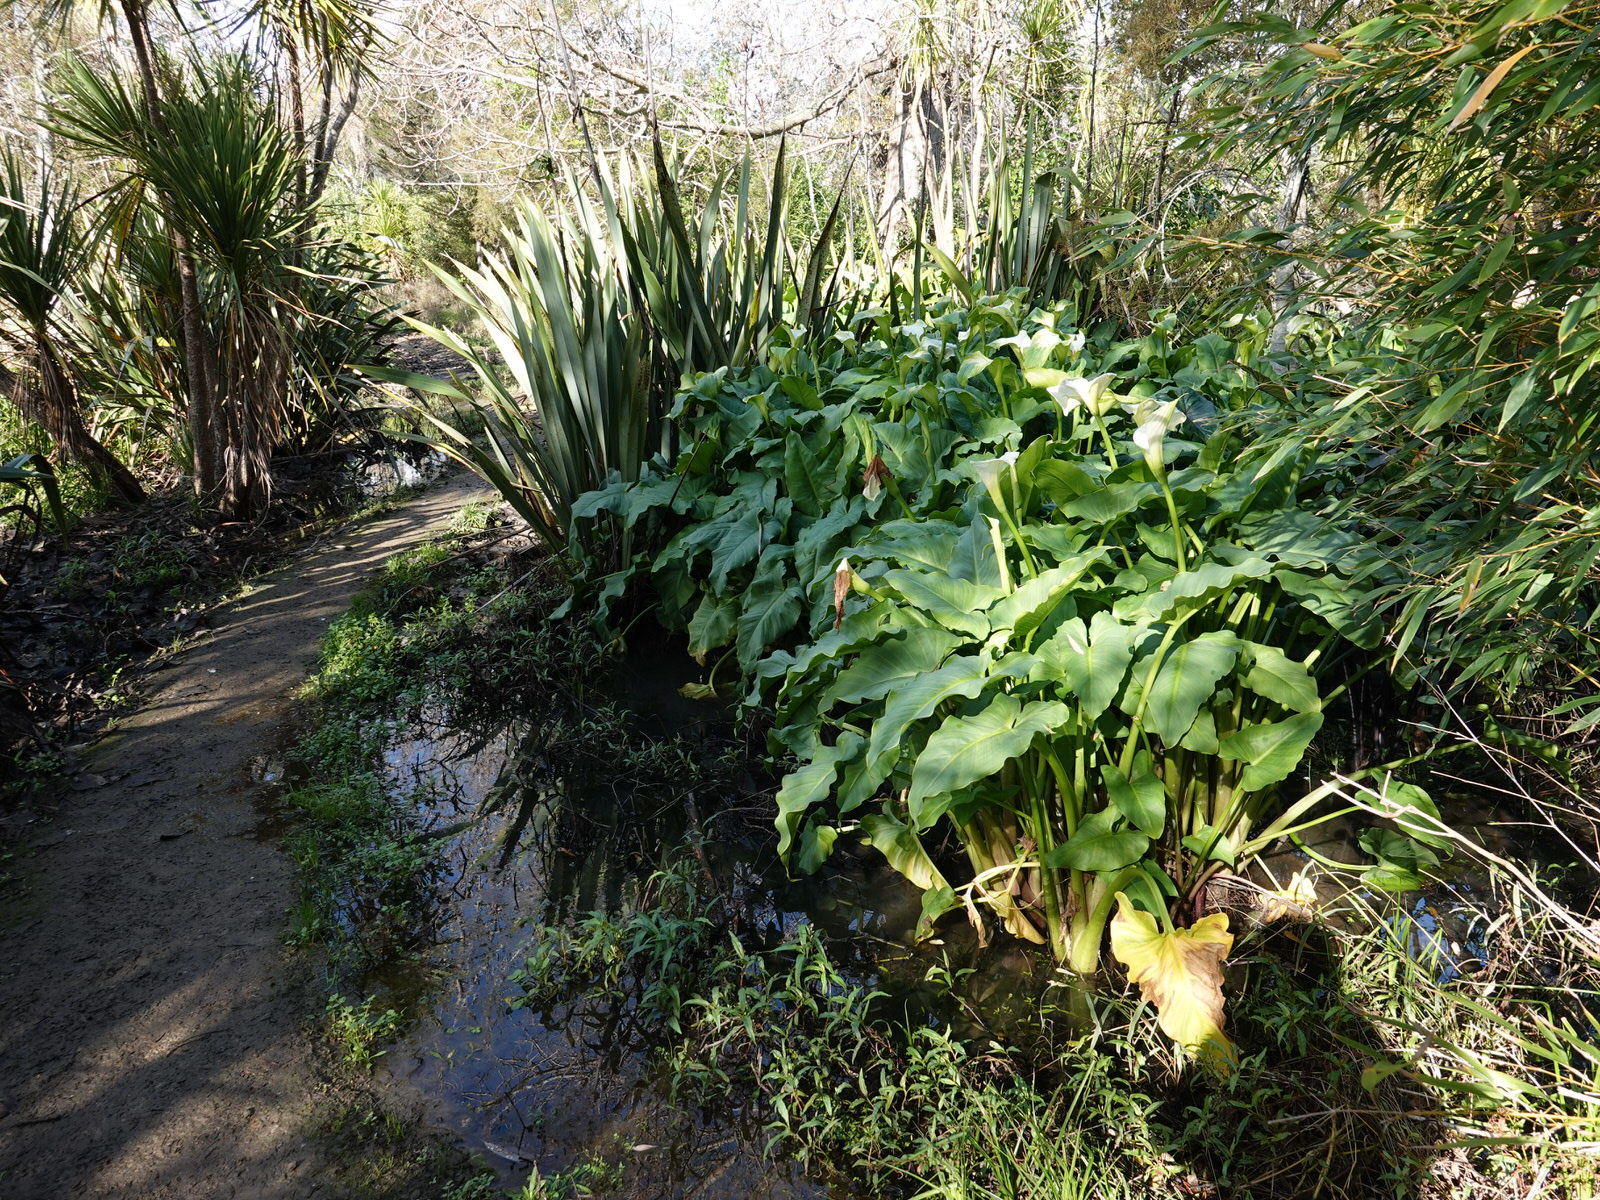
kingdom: Plantae
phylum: Tracheophyta
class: Liliopsida
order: Alismatales
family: Araceae
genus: Zantedeschia
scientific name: Zantedeschia aethiopica
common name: Altar-lily
